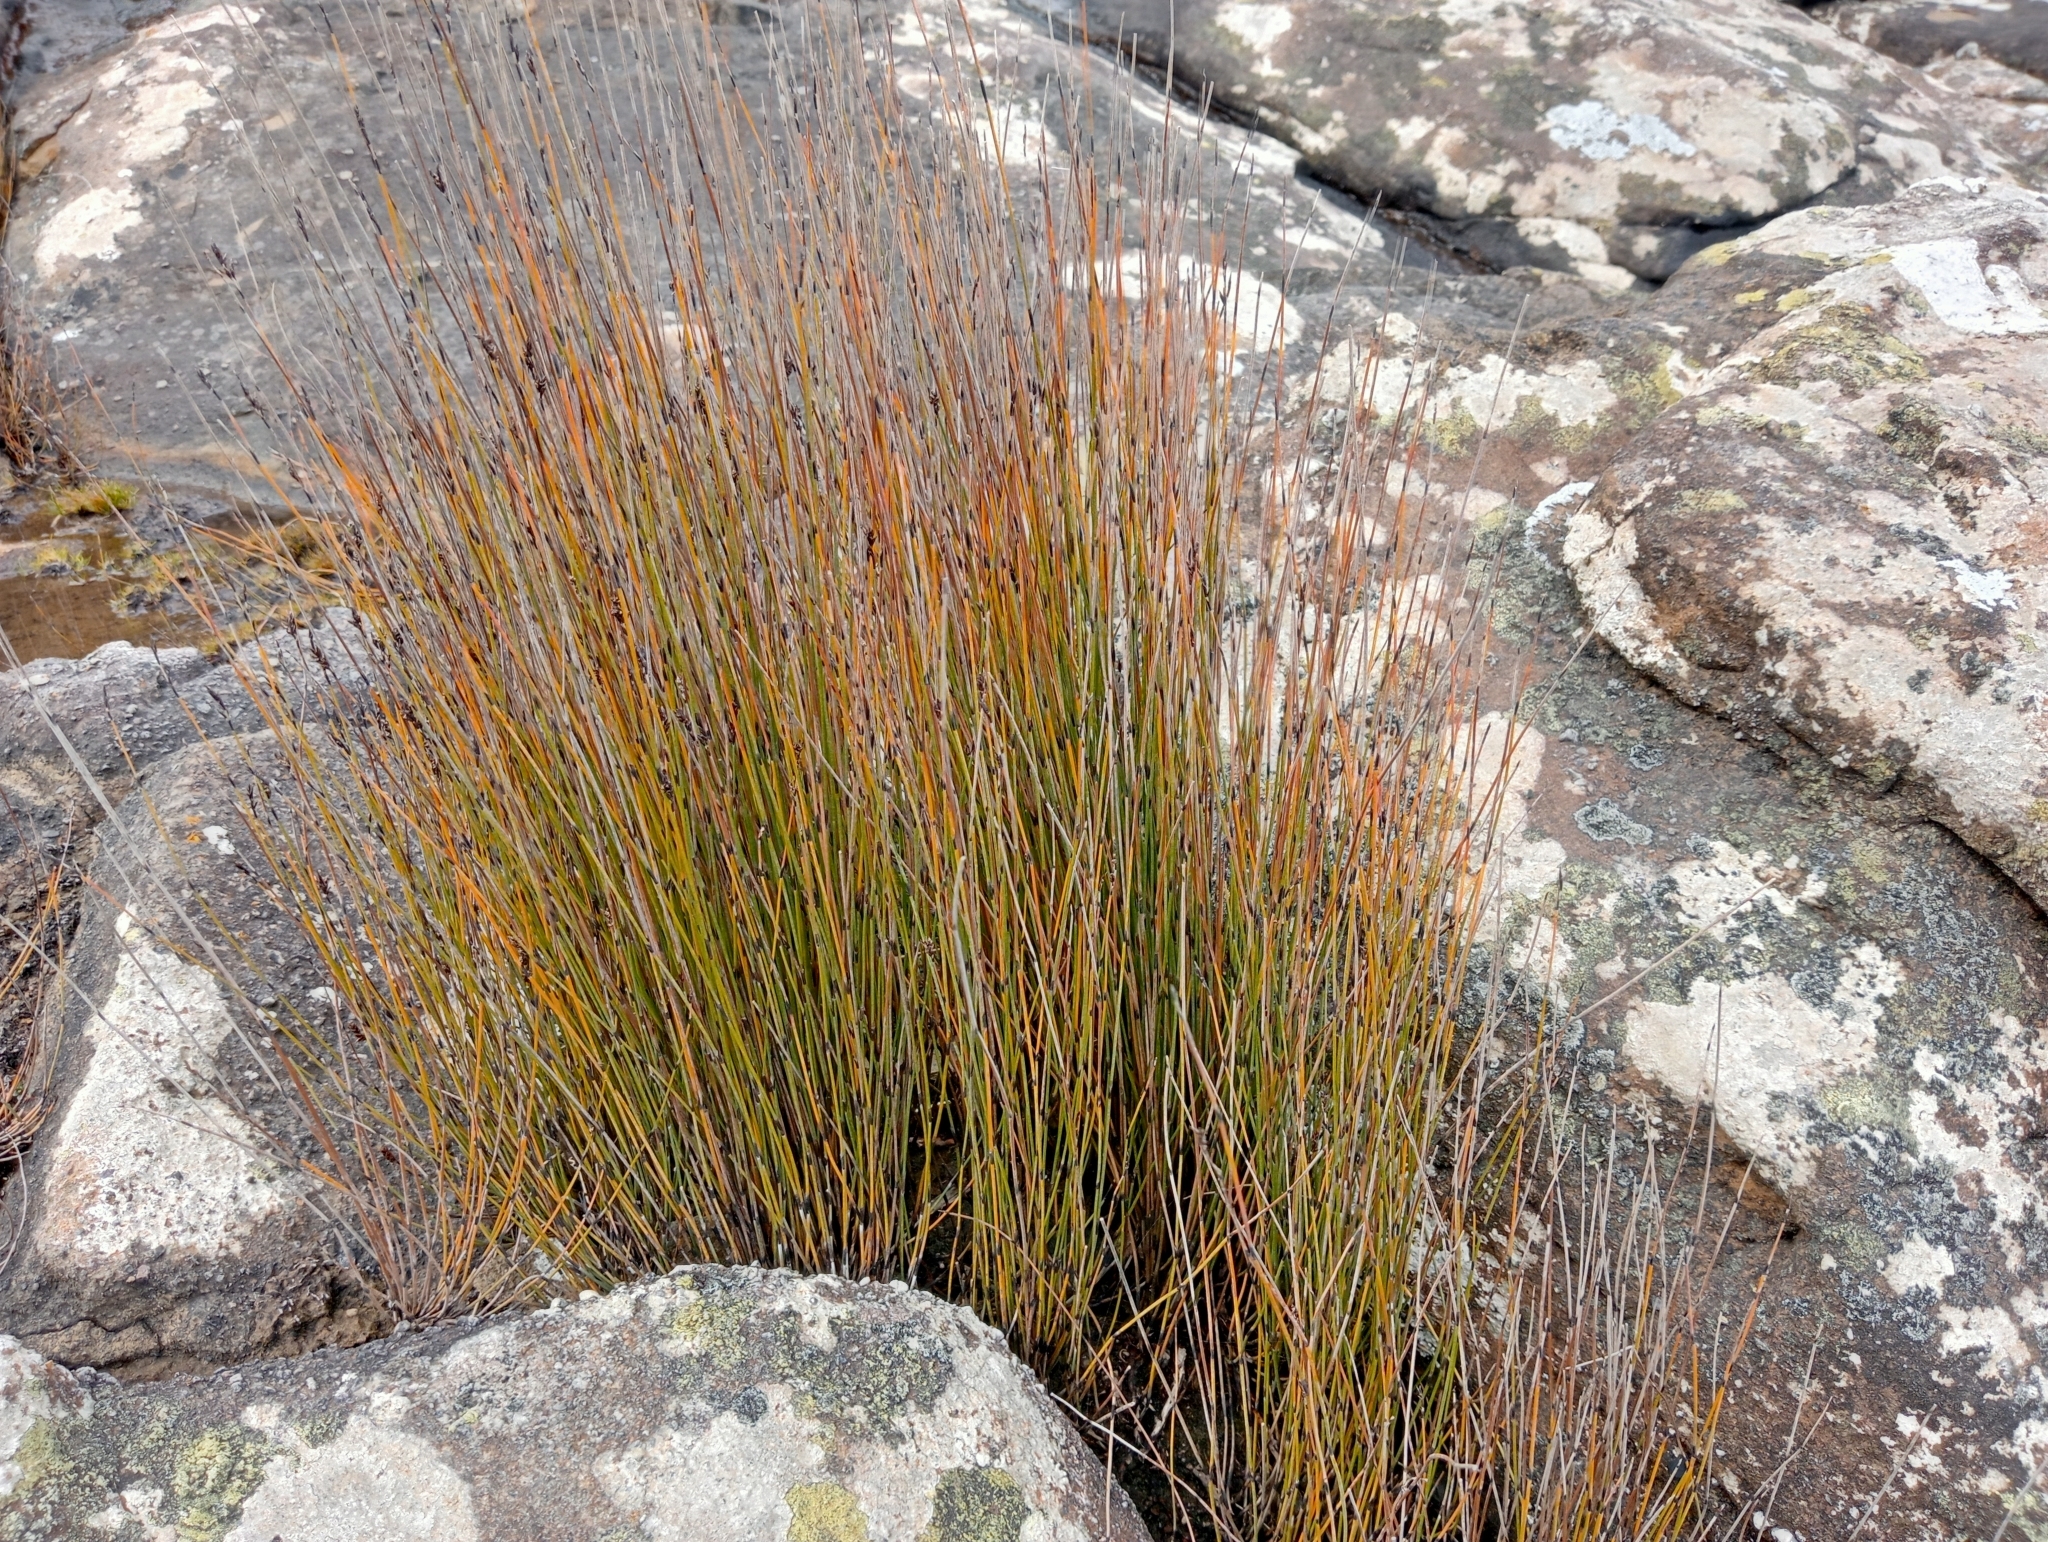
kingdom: Plantae
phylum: Tracheophyta
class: Liliopsida
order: Poales
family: Restionaceae
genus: Apodasmia
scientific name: Apodasmia similis
